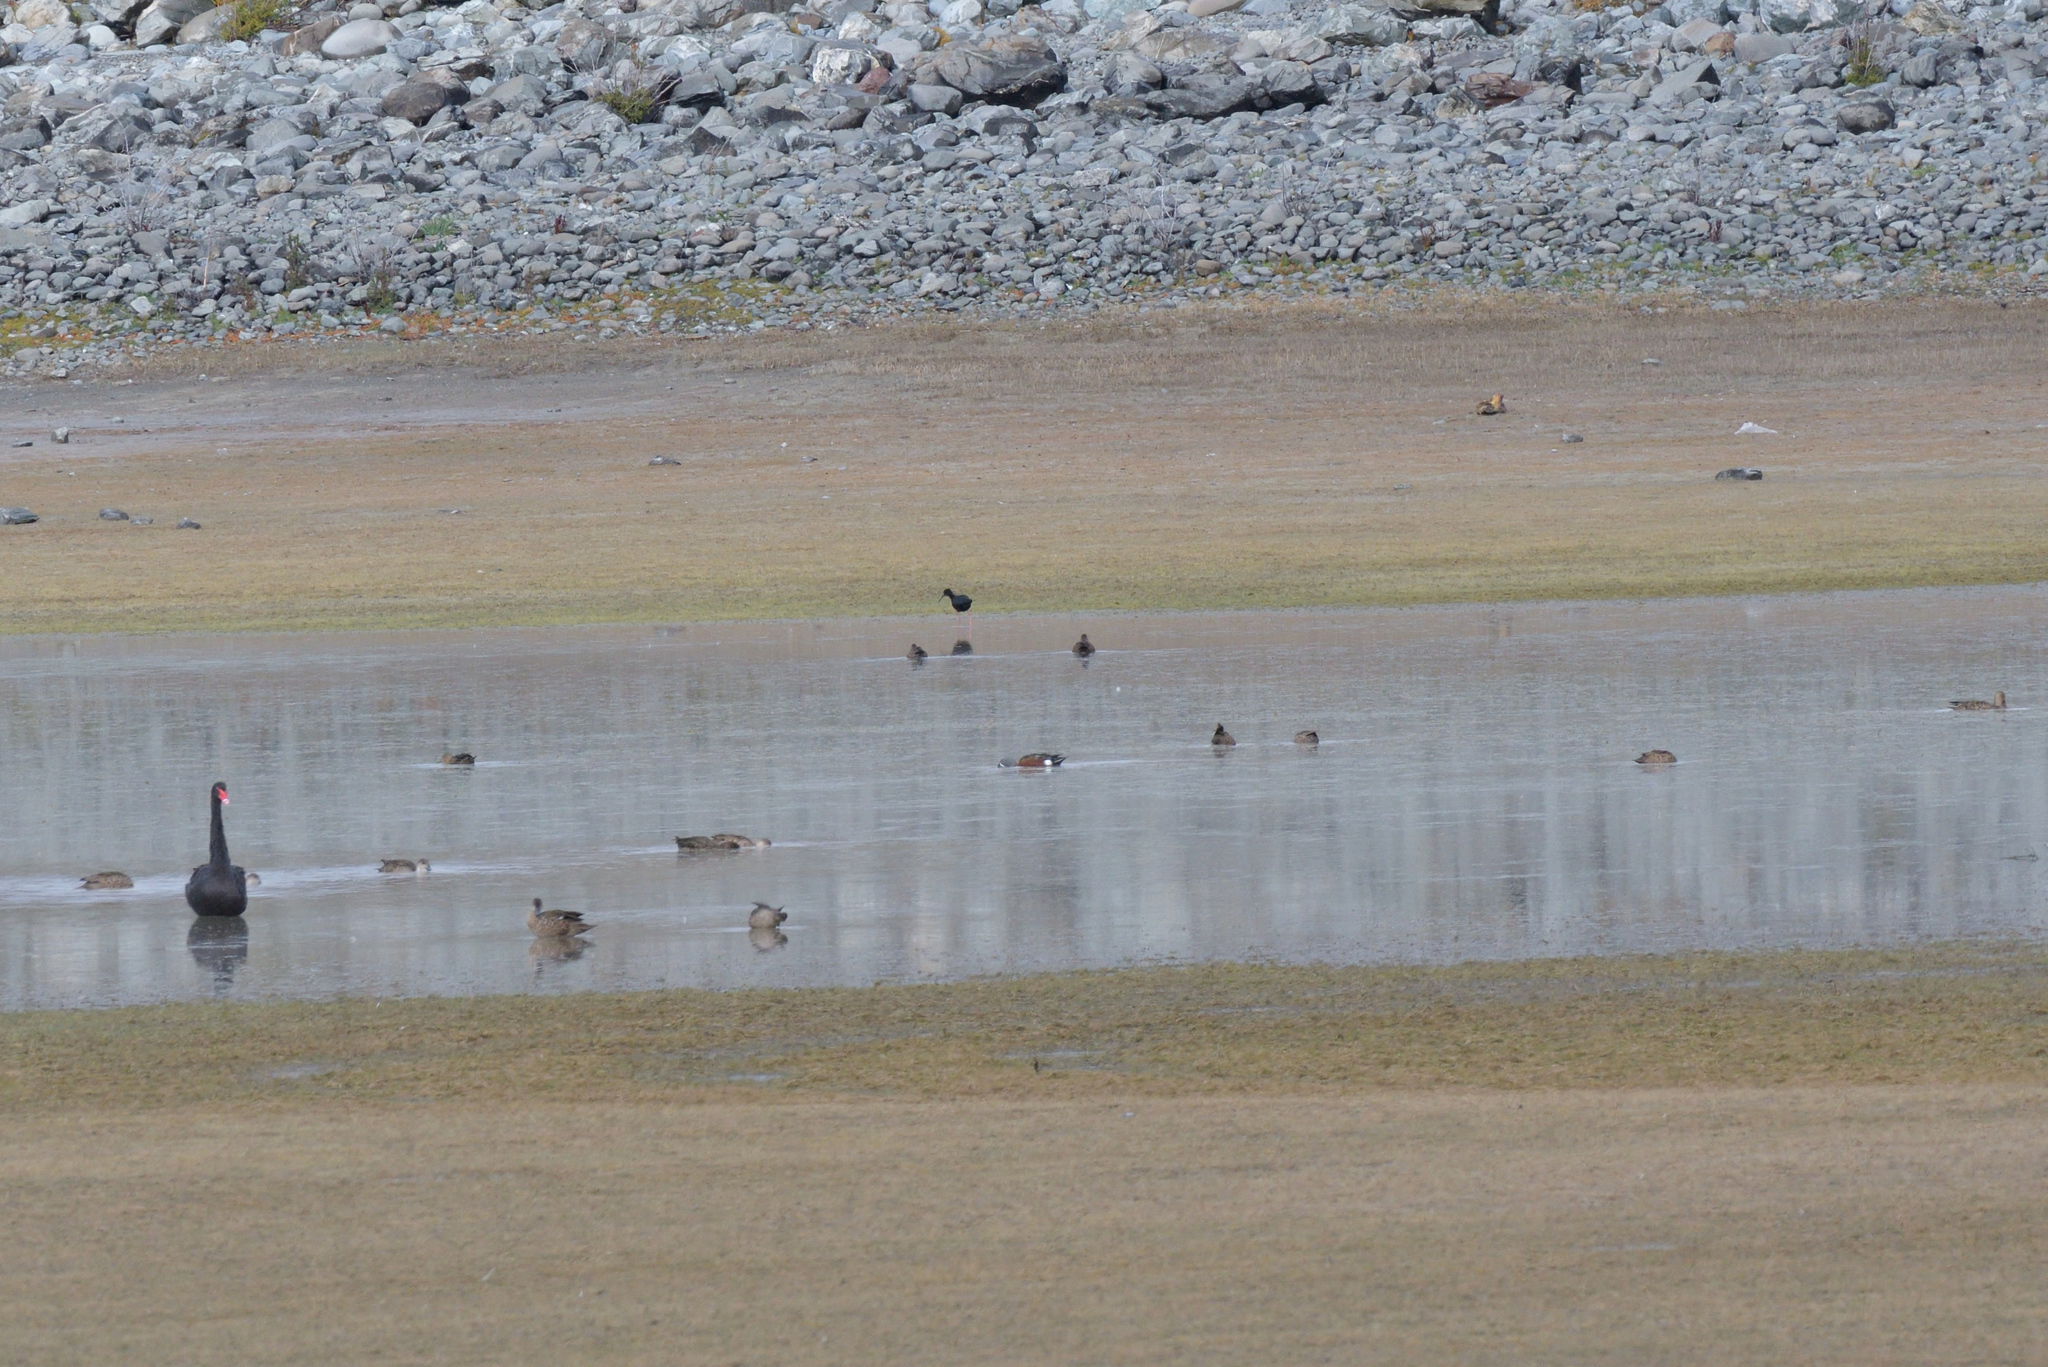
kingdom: Animalia
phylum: Chordata
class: Aves
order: Charadriiformes
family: Recurvirostridae
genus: Himantopus
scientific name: Himantopus novaezelandiae
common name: Black stilt
